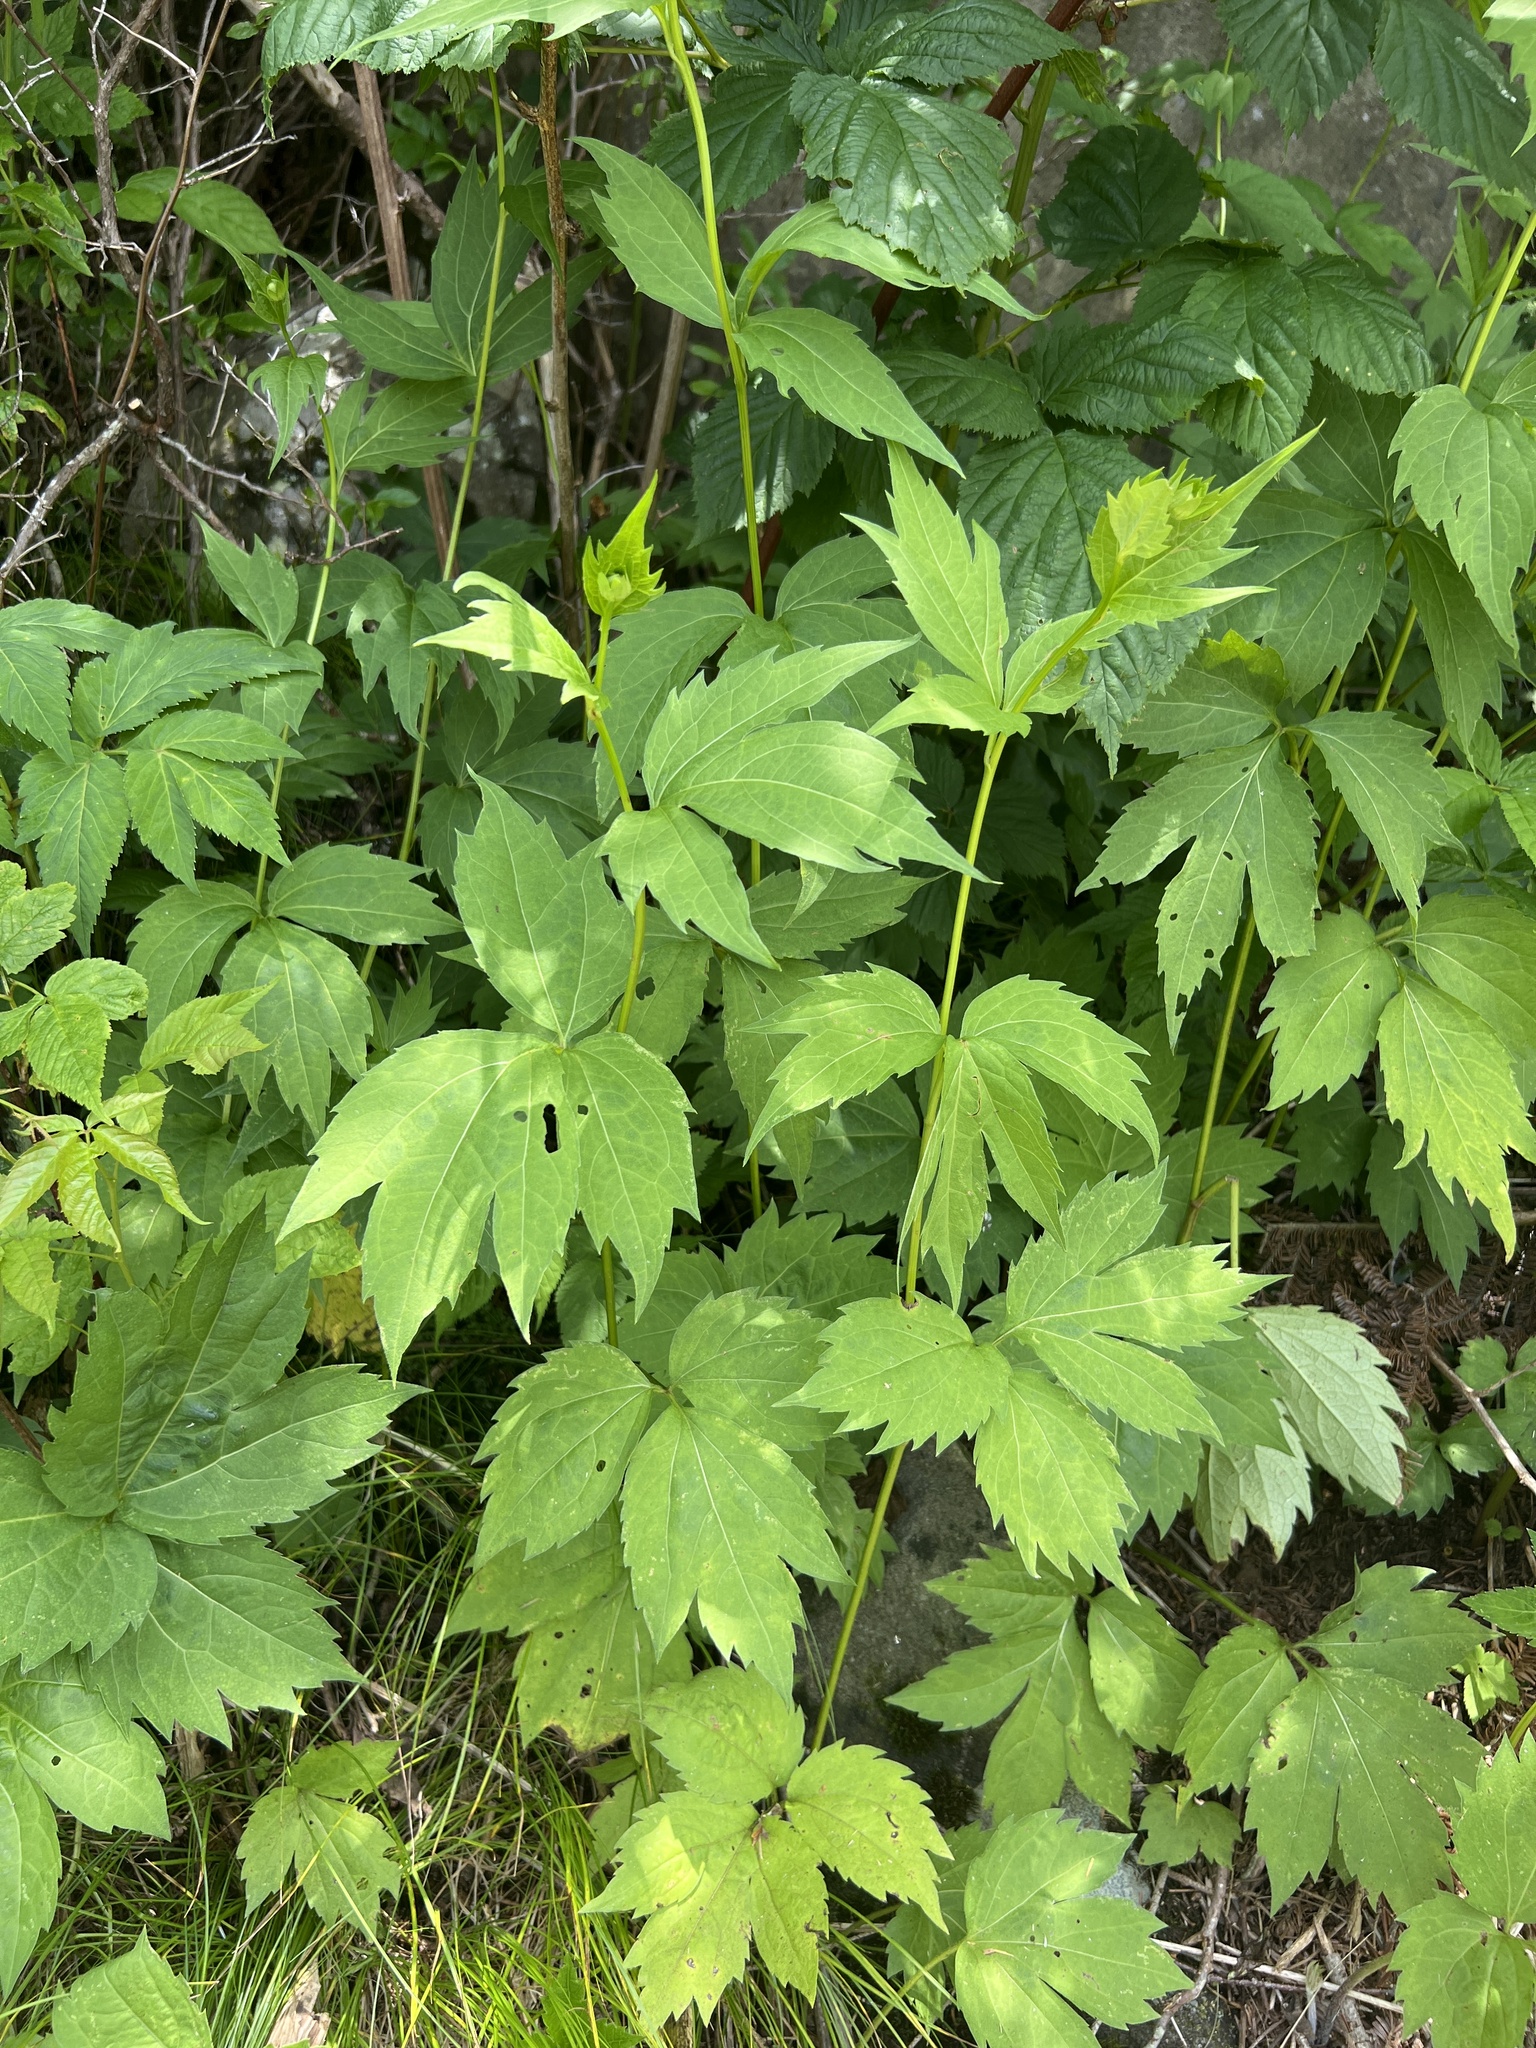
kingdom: Plantae
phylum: Tracheophyta
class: Magnoliopsida
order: Asterales
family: Asteraceae
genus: Rudbeckia
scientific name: Rudbeckia laciniata
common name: Coneflower
